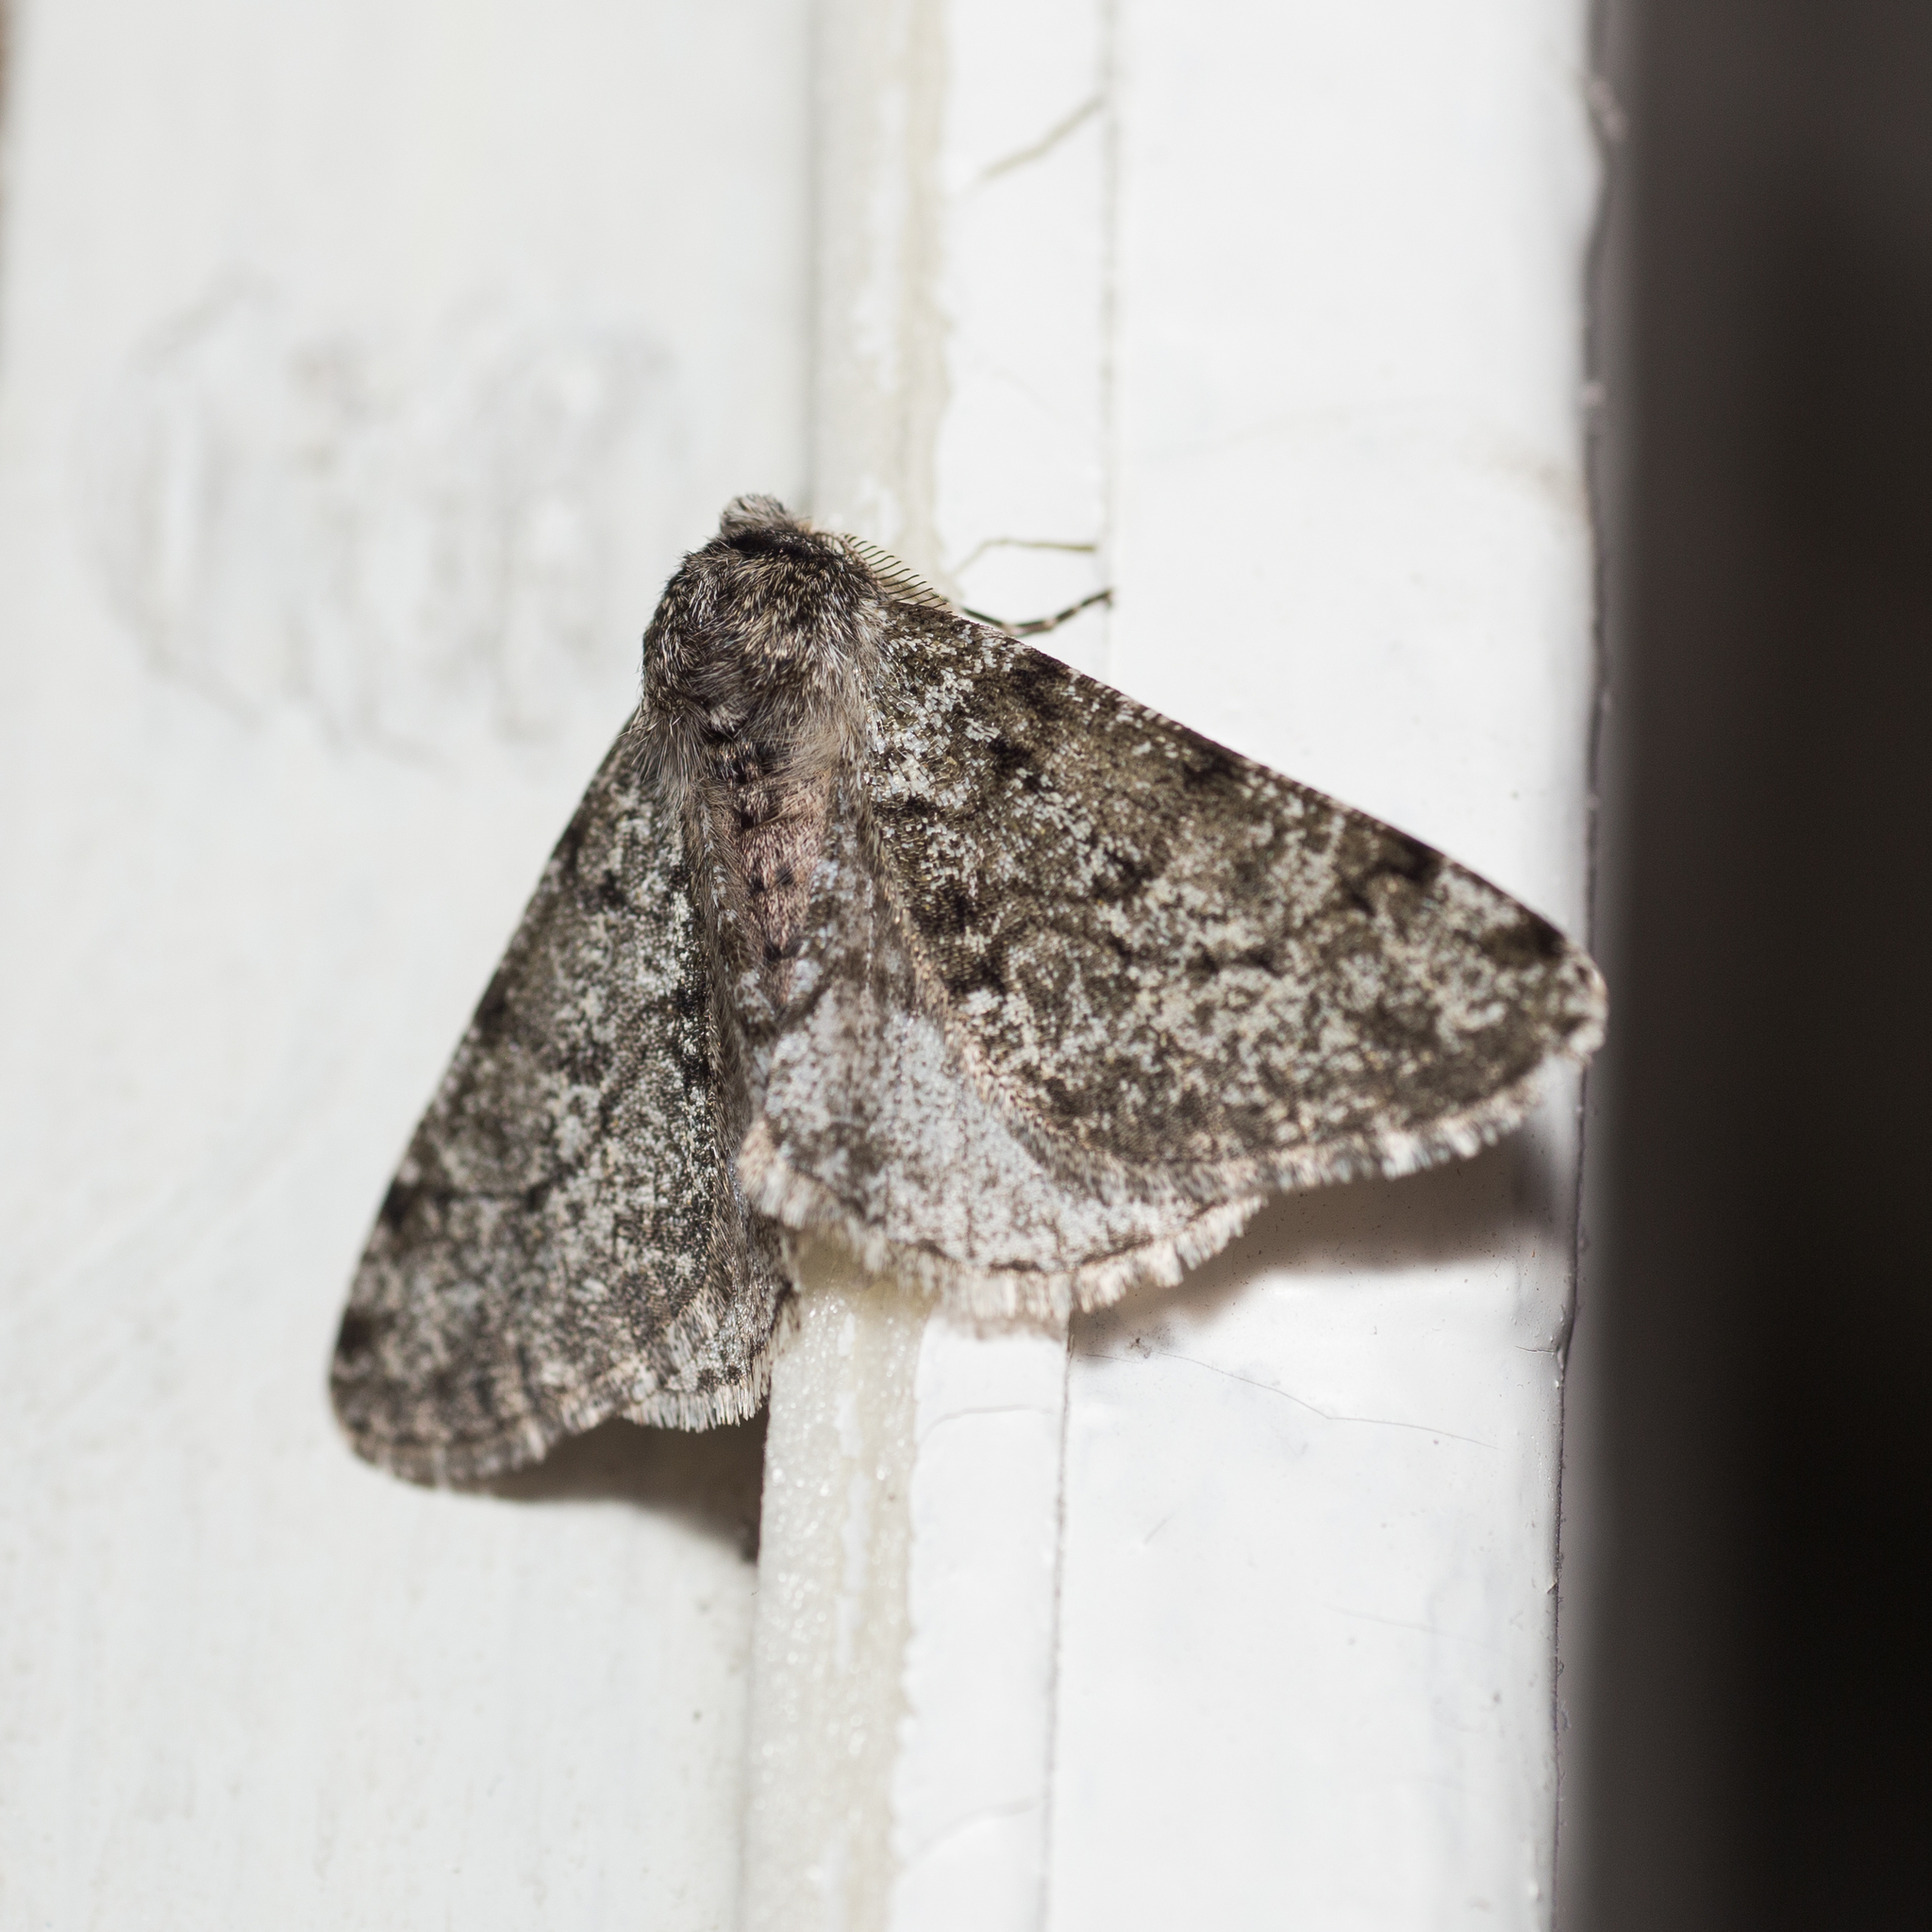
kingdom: Animalia
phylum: Arthropoda
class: Insecta
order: Lepidoptera
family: Geometridae
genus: Phigalia
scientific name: Phigalia pilosaria
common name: Pale brindled beauty
